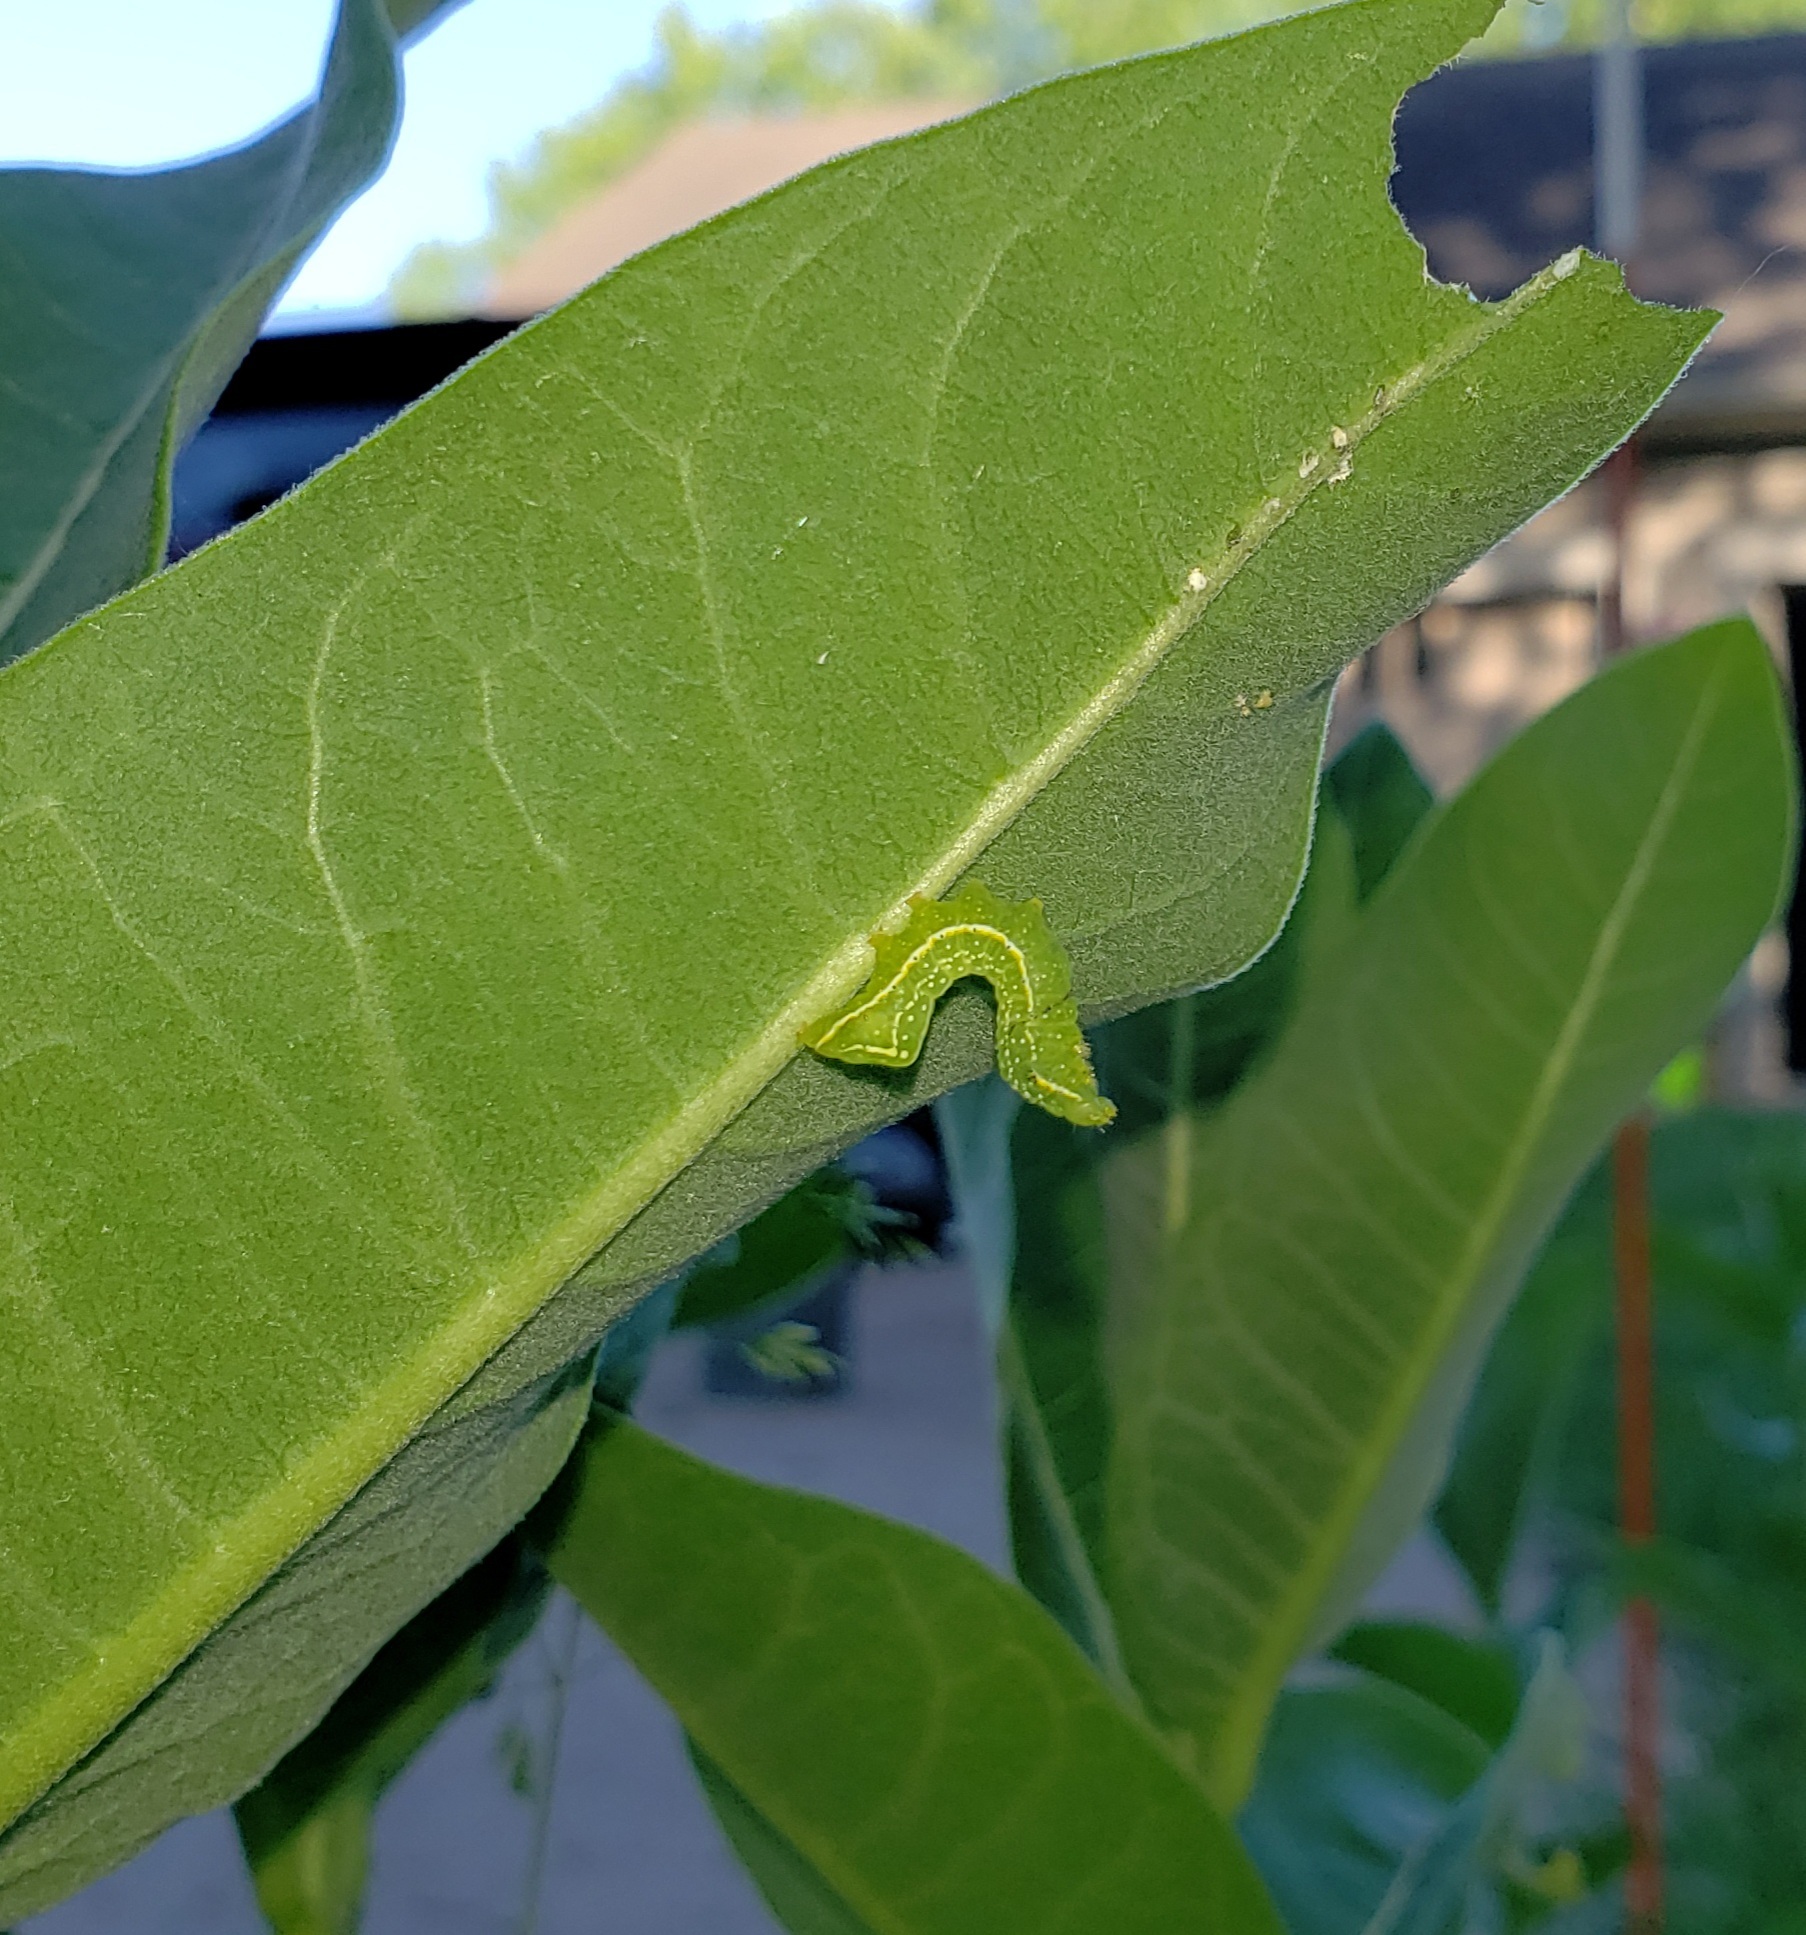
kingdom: Animalia
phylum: Arthropoda
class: Insecta
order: Lepidoptera
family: Noctuidae
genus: Amphipyra
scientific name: Amphipyra pyramidoides
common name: American copper underwing
